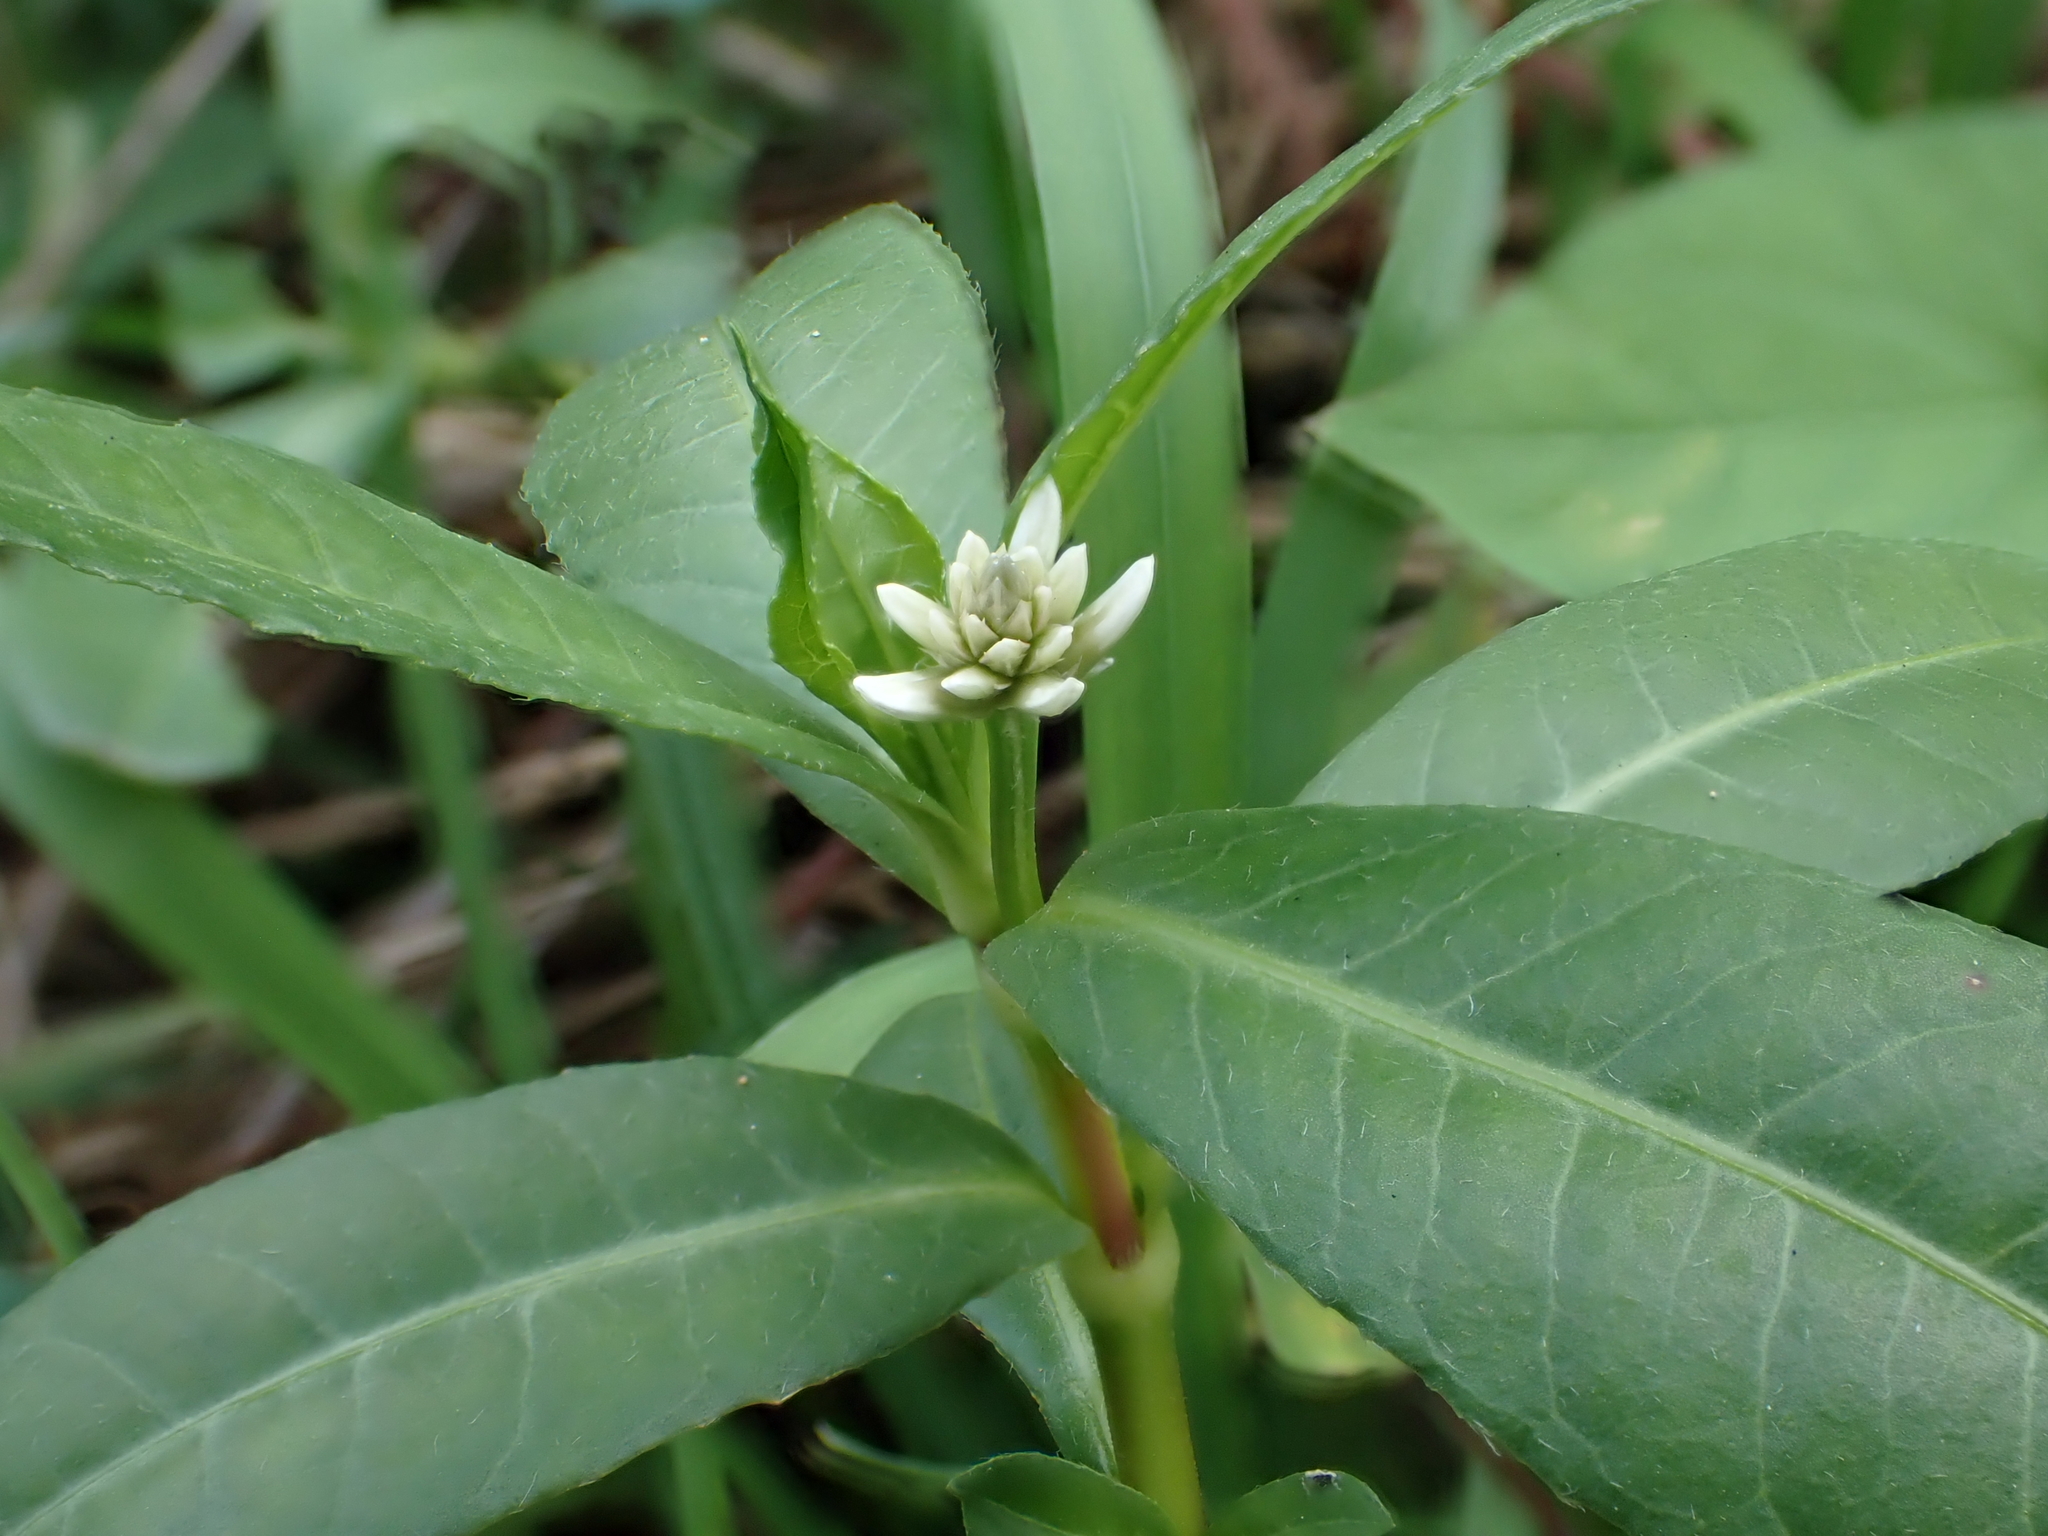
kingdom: Plantae
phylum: Tracheophyta
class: Magnoliopsida
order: Caryophyllales
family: Amaranthaceae
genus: Alternanthera
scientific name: Alternanthera philoxeroides
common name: Alligatorweed
